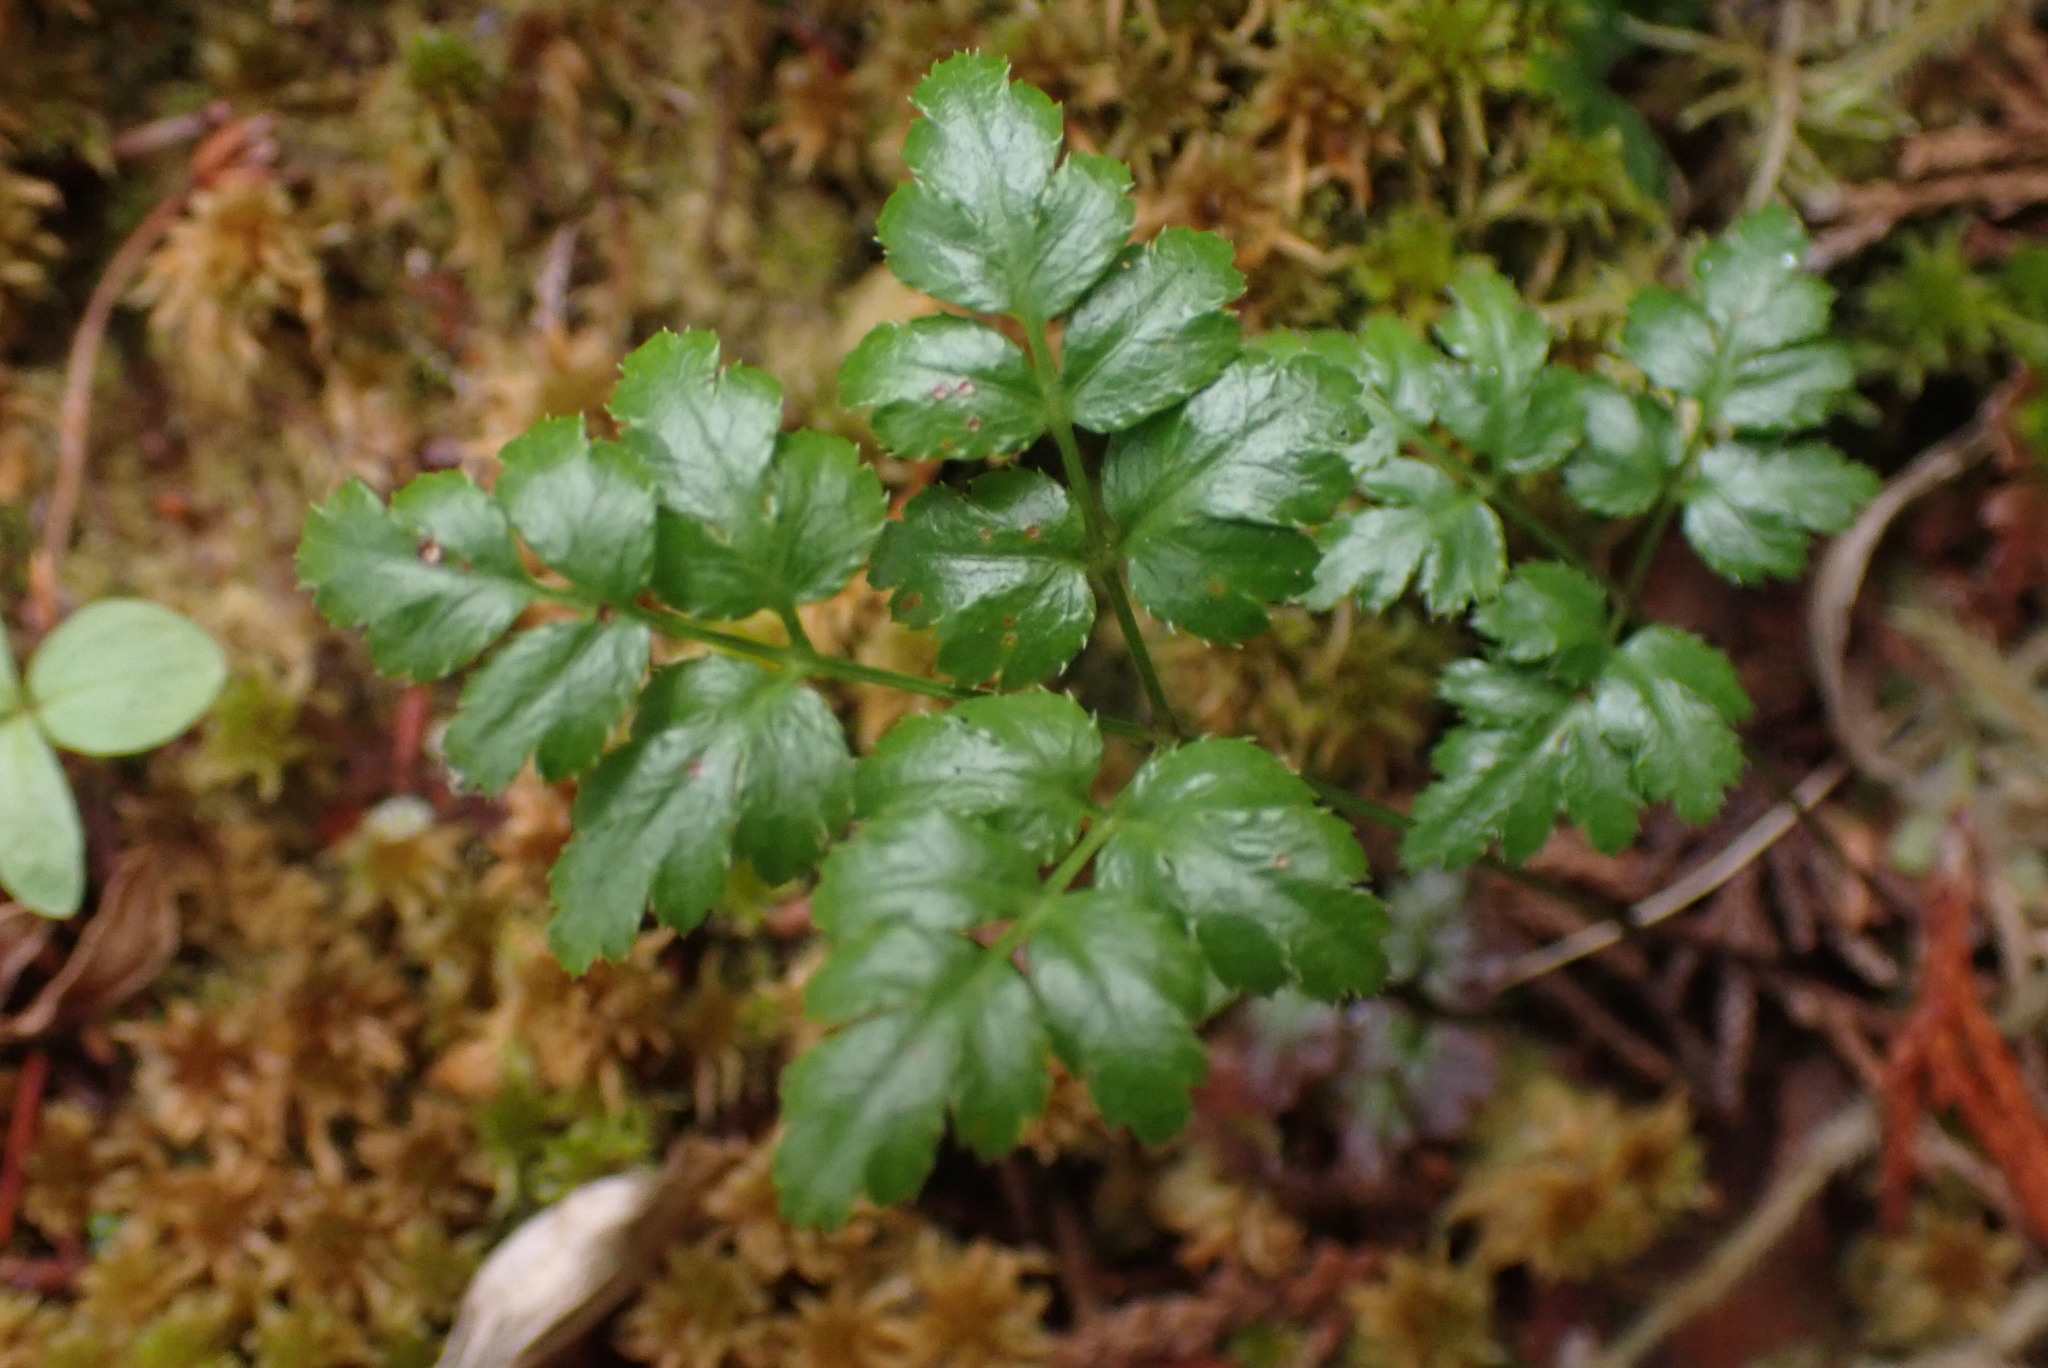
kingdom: Plantae
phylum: Tracheophyta
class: Magnoliopsida
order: Ranunculales
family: Ranunculaceae
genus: Coptis
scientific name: Coptis aspleniifolia
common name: Fern-leaved goldthread
